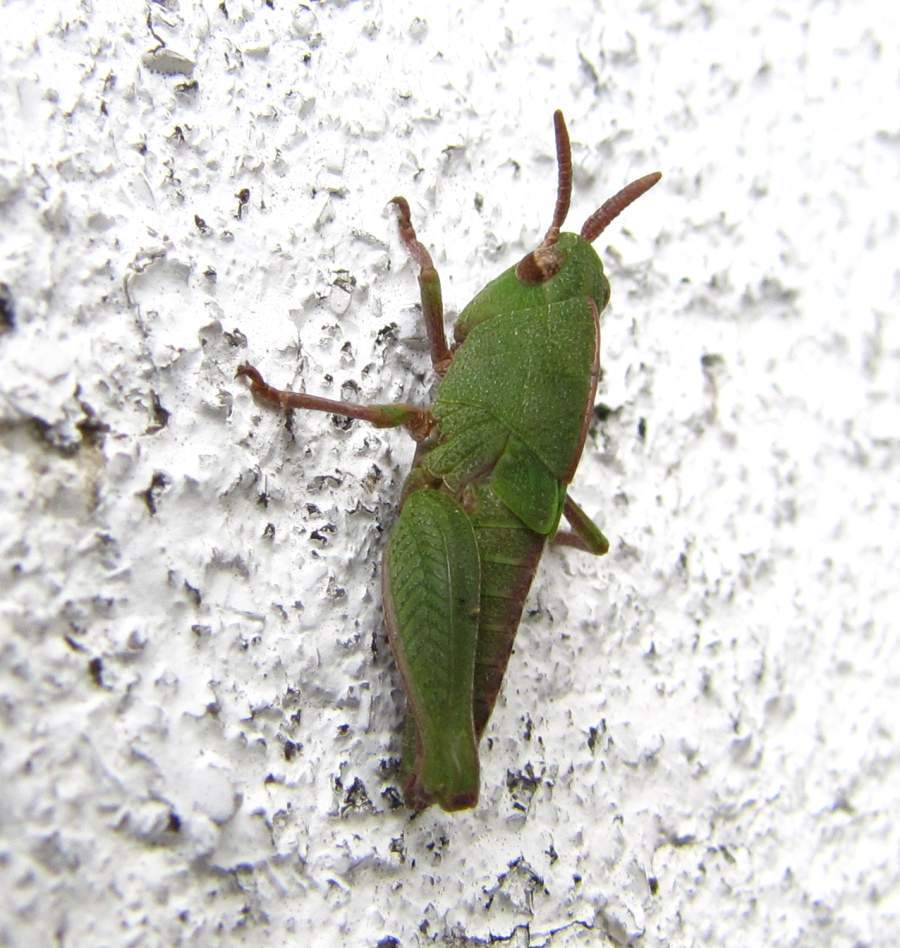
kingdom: Animalia
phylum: Arthropoda
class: Insecta
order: Orthoptera
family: Acrididae
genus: Chortophaga
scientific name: Chortophaga viridifasciata
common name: Green-striped grasshopper
